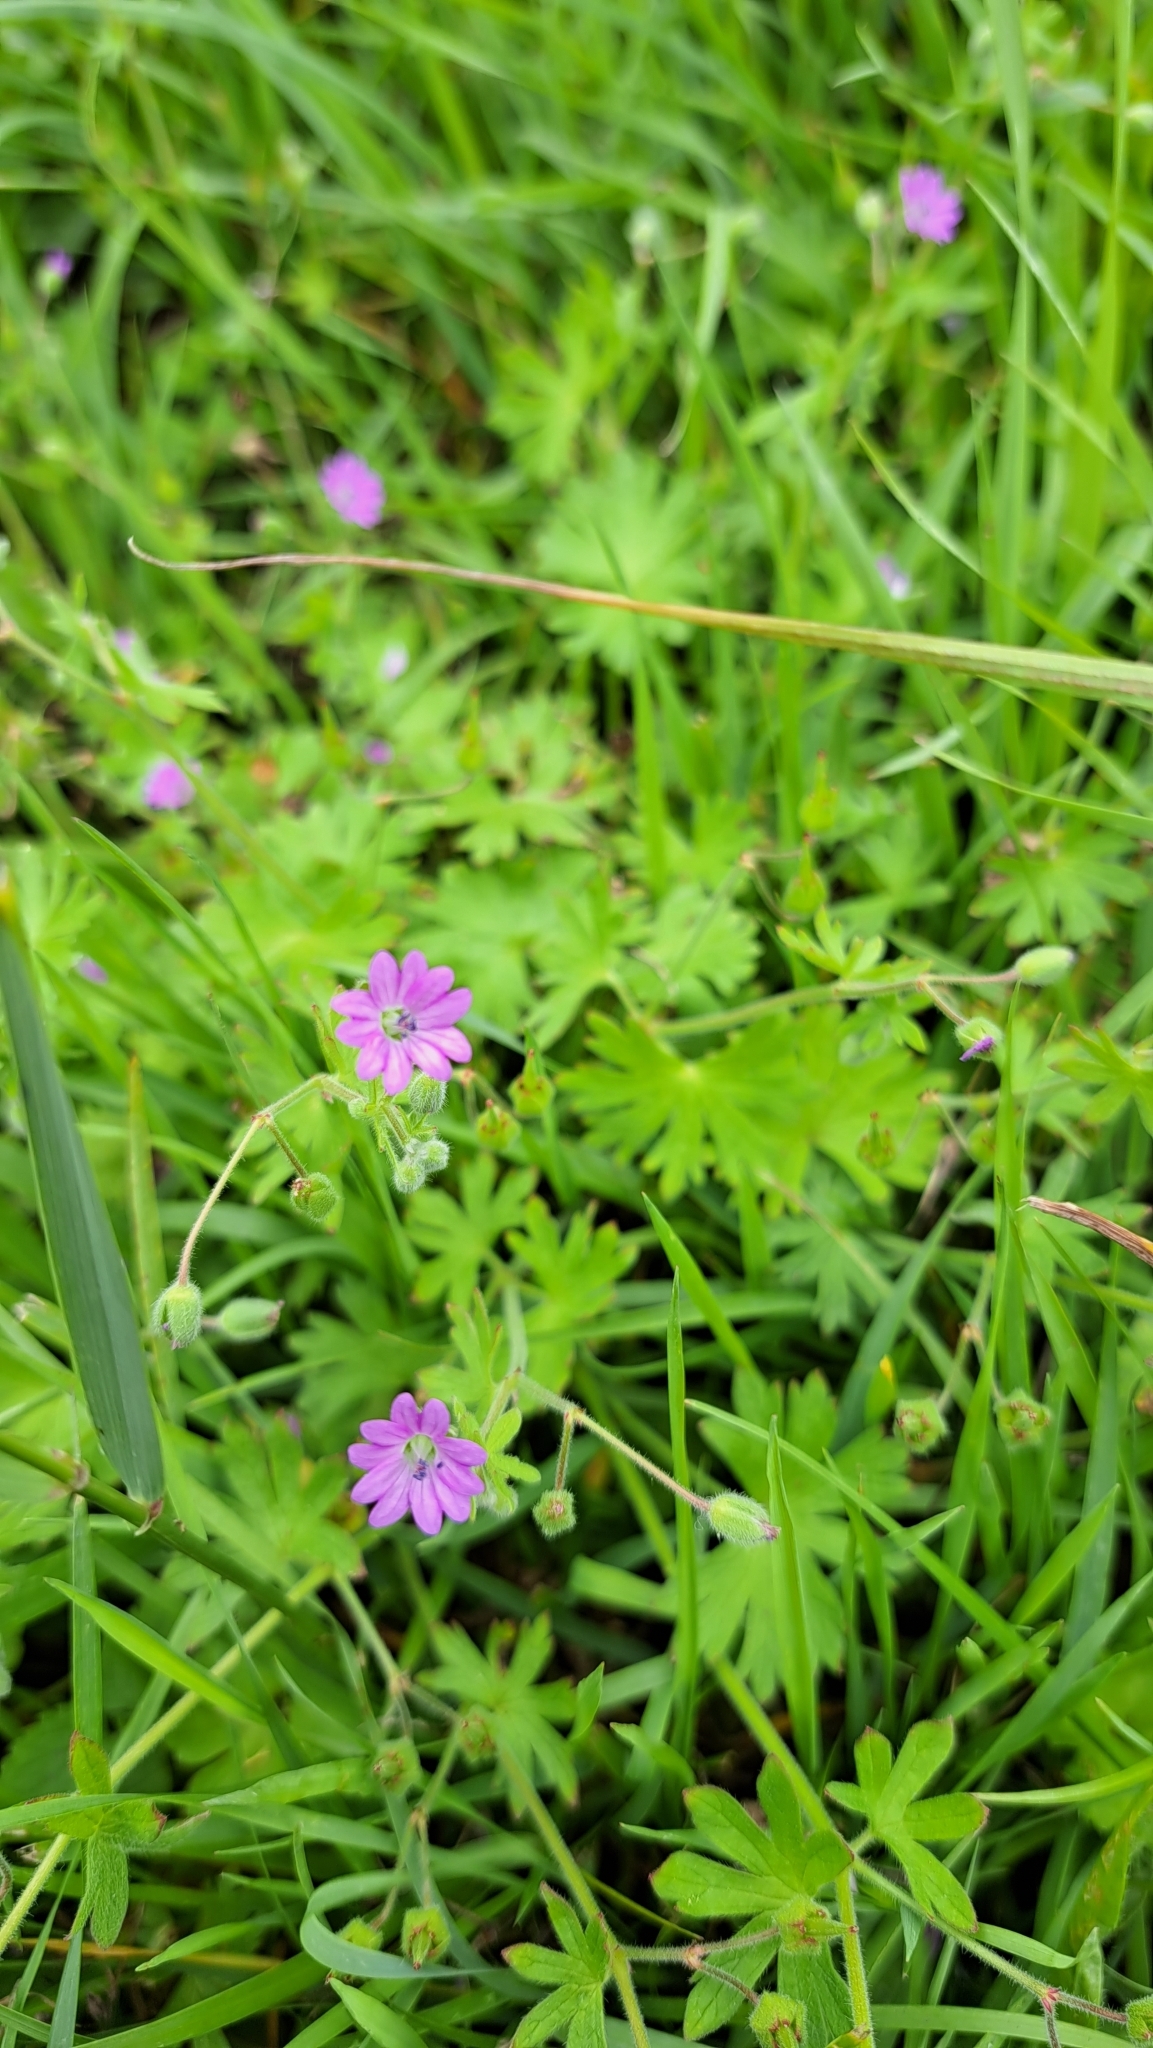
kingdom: Plantae
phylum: Tracheophyta
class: Magnoliopsida
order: Geraniales
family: Geraniaceae
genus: Geranium
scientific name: Geranium pyrenaicum
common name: Hedgerow crane's-bill
